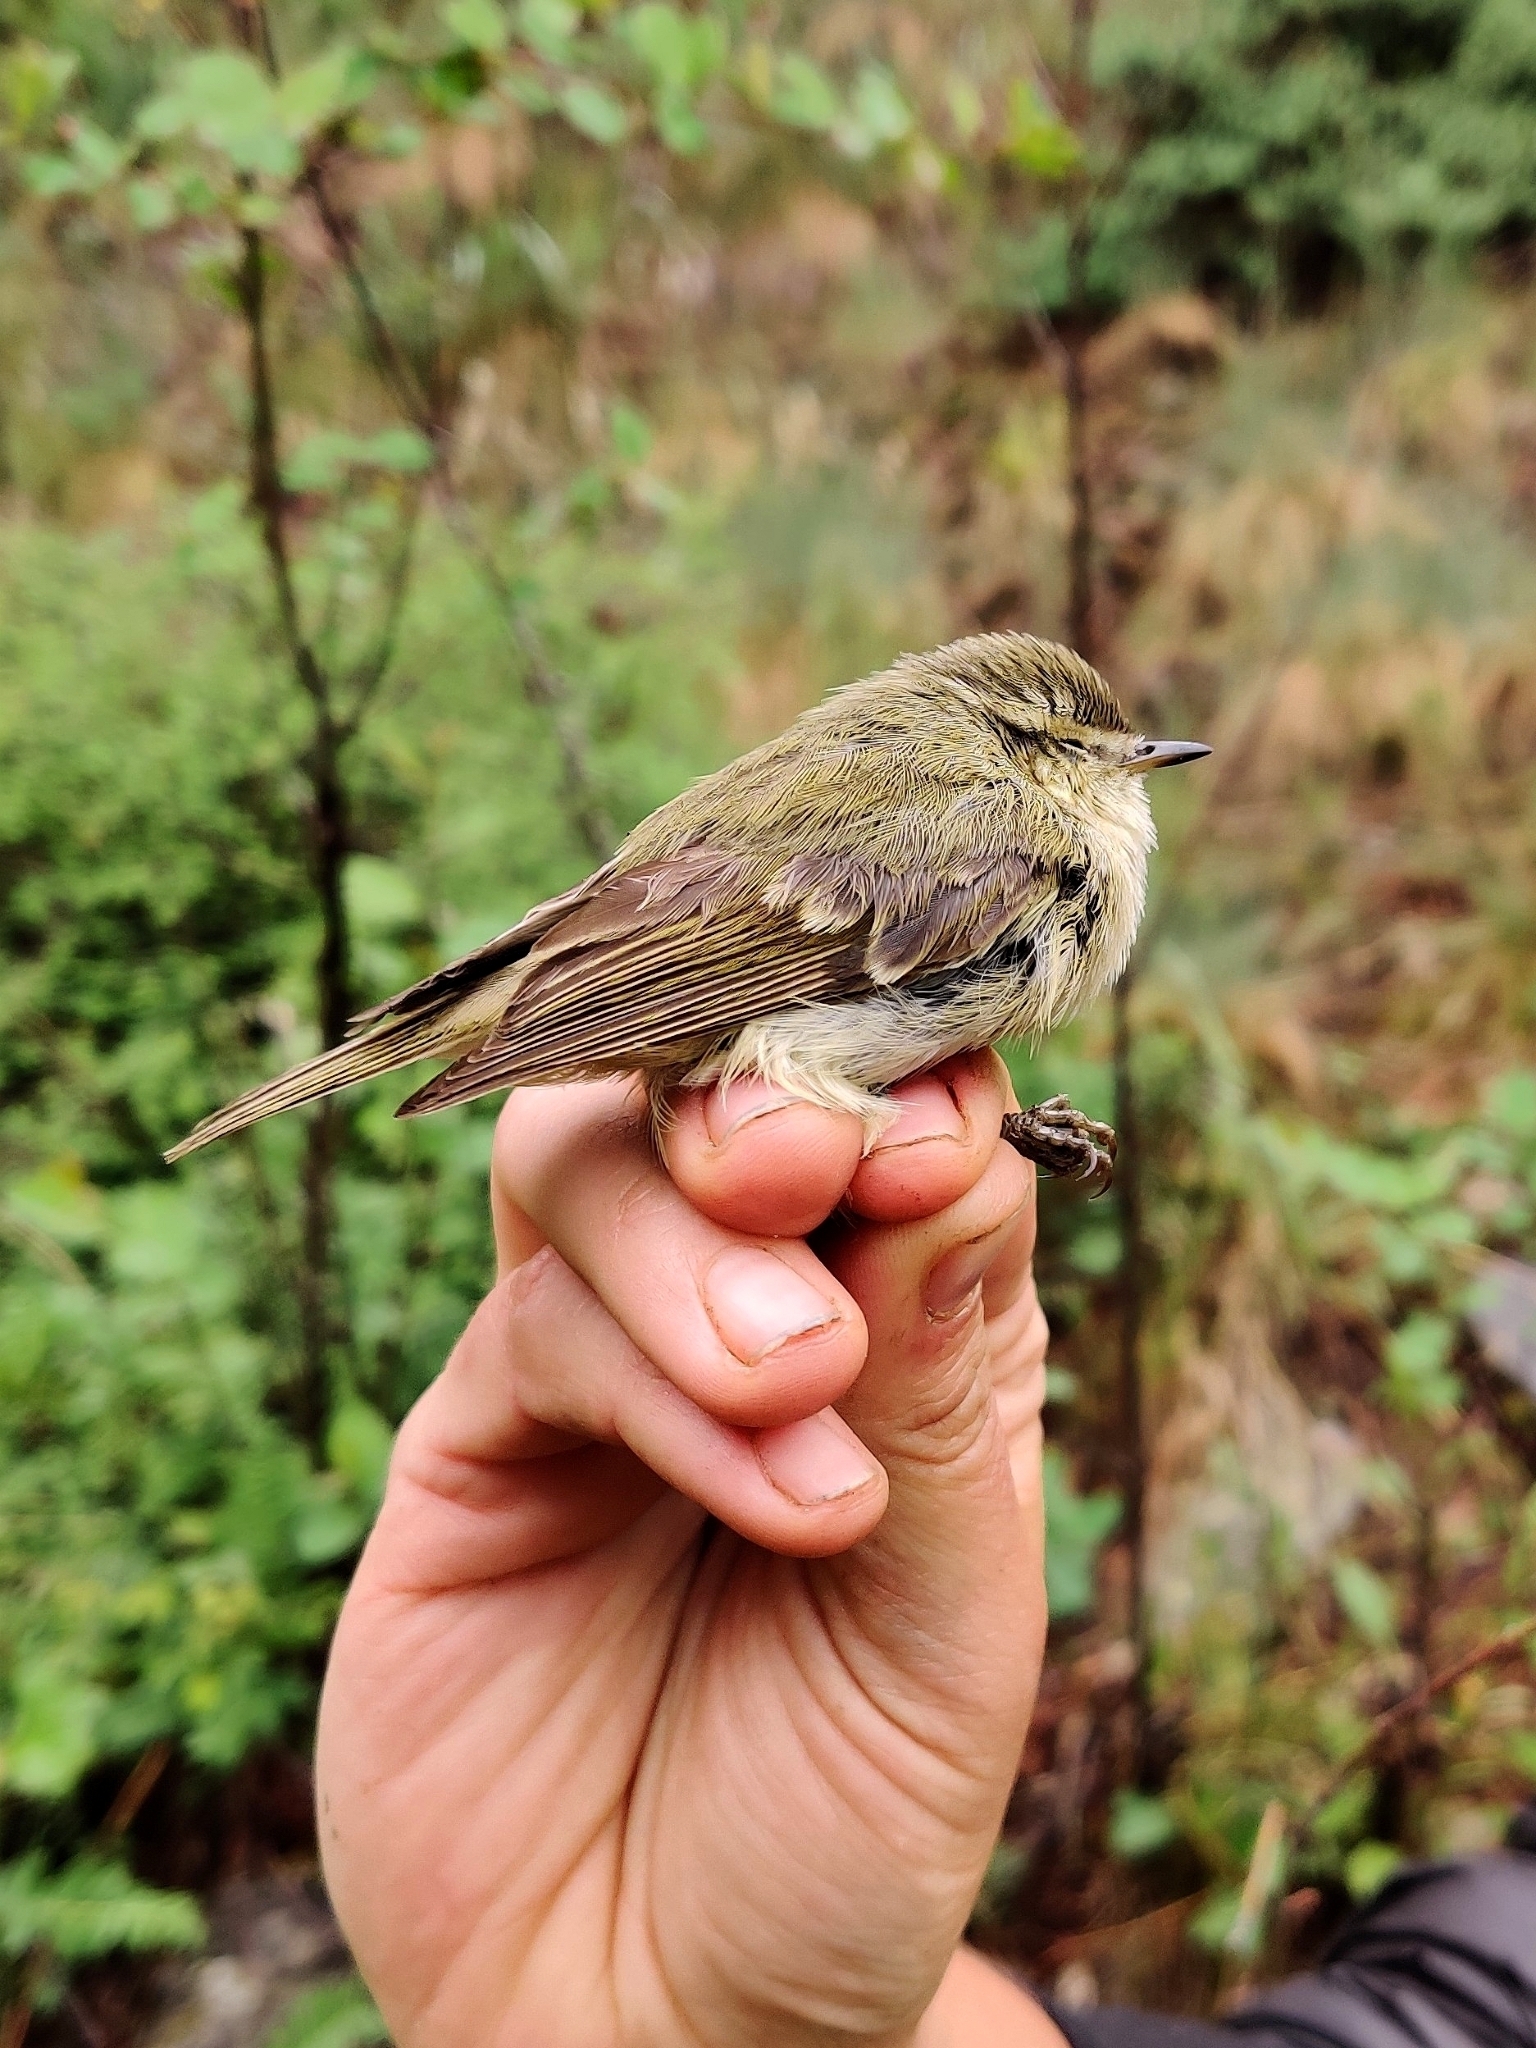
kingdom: Animalia
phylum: Chordata
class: Aves
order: Passeriformes
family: Phylloscopidae
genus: Phylloscopus
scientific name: Phylloscopus trochiloides
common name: Greenish warbler
